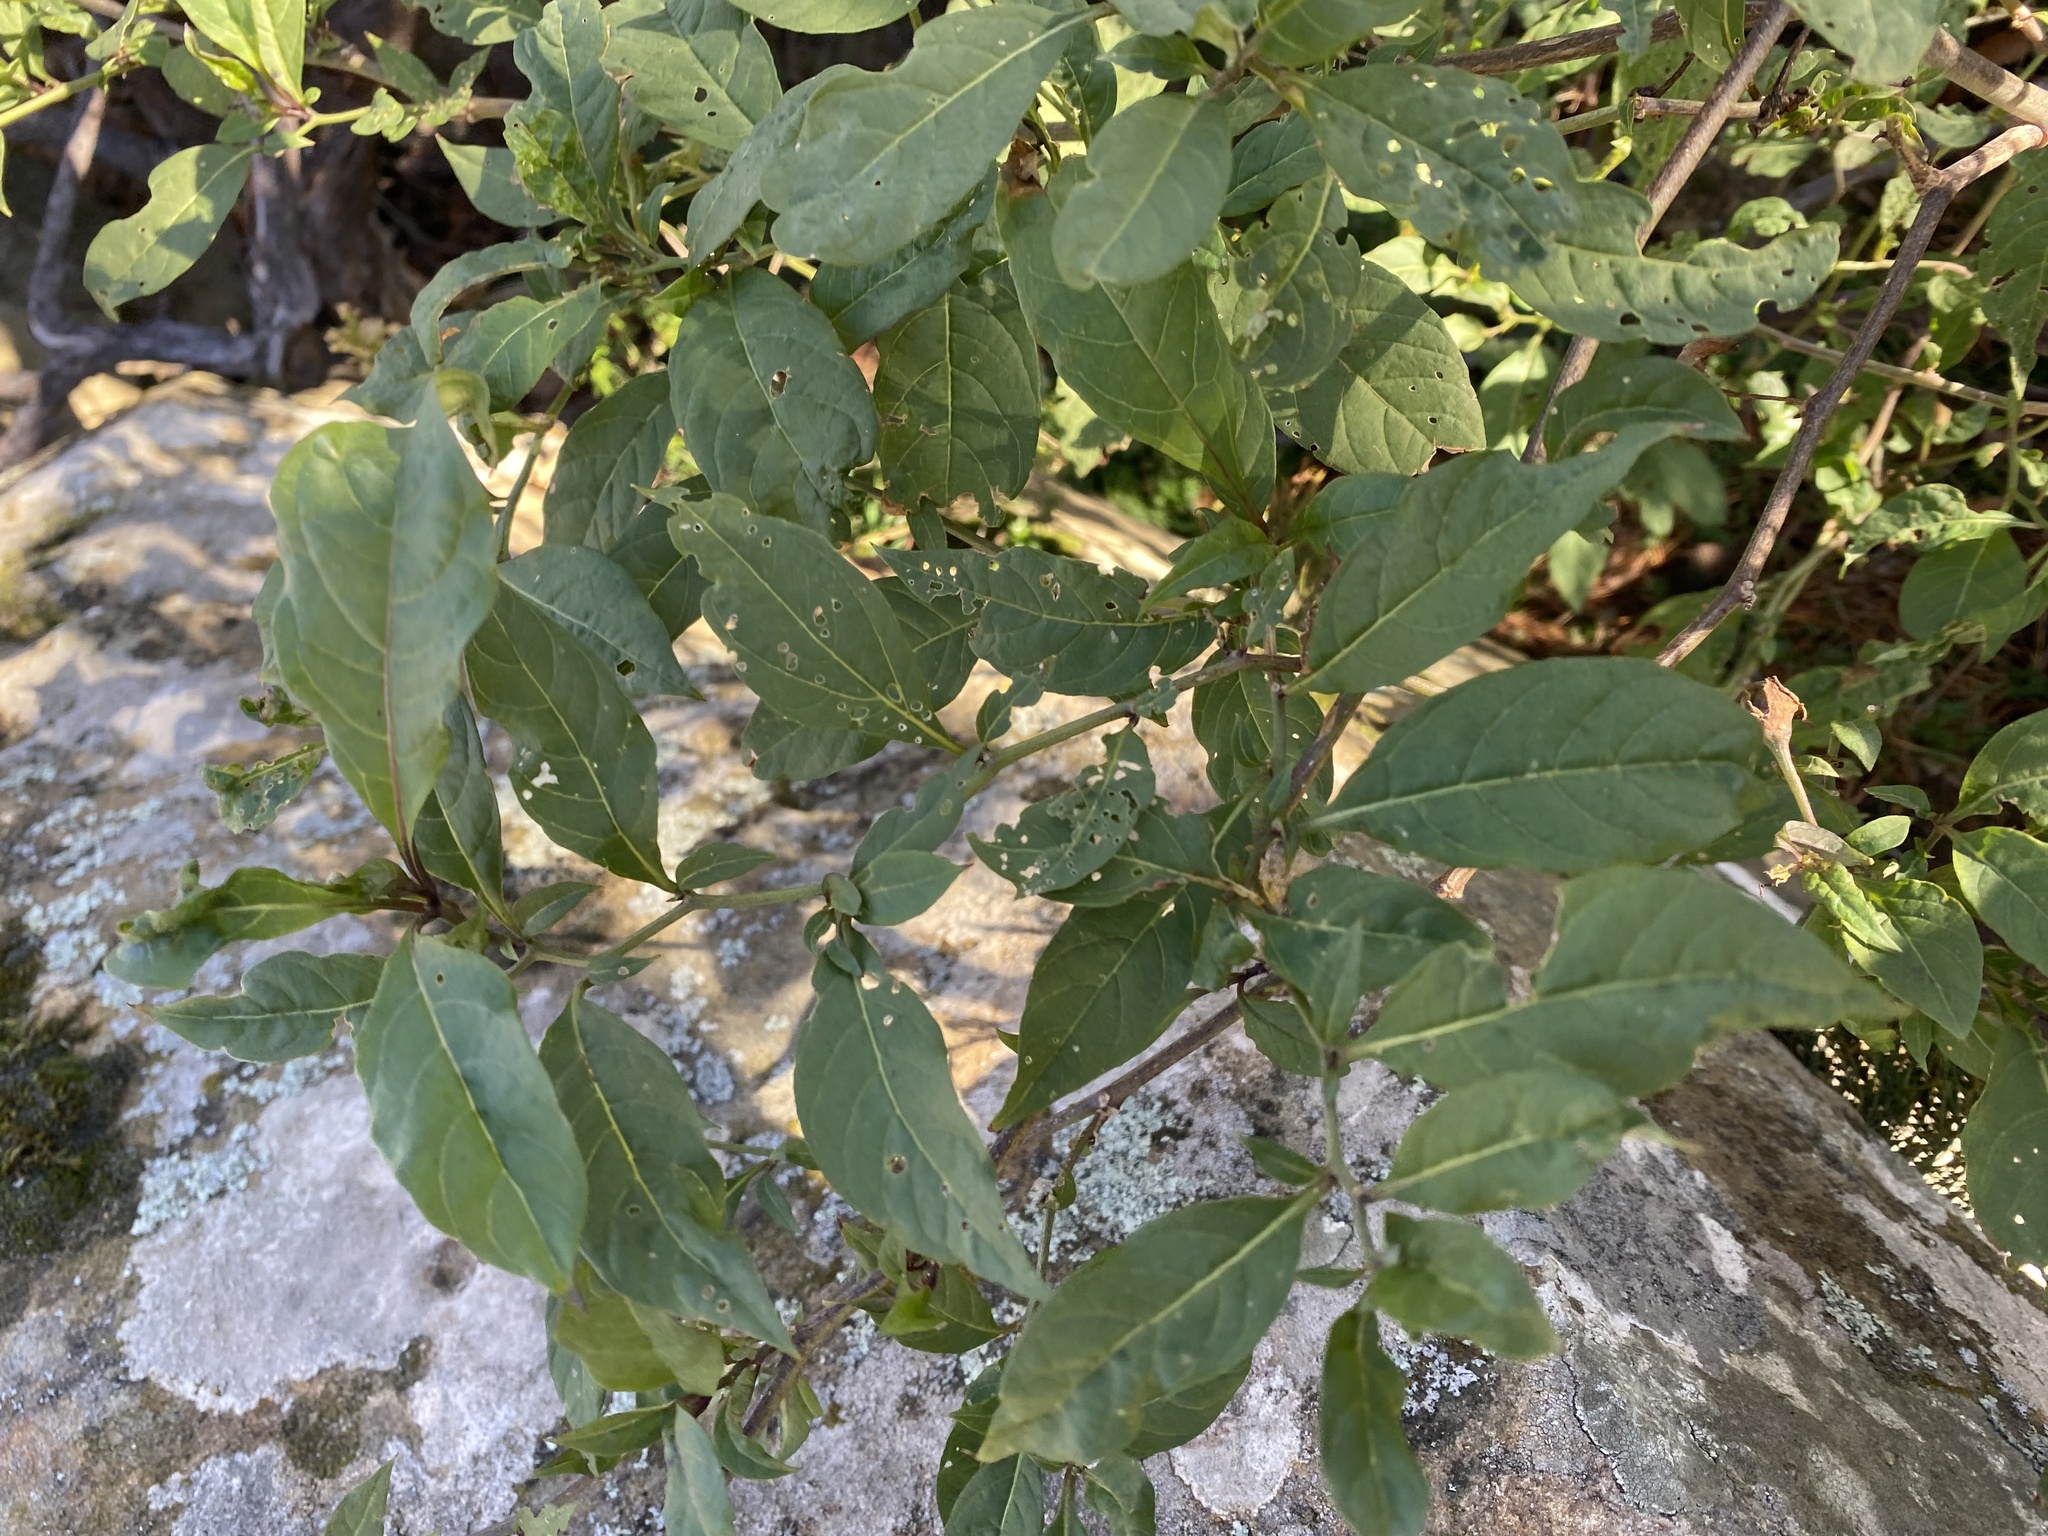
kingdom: Plantae
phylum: Tracheophyta
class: Magnoliopsida
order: Solanales
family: Solanaceae
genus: Atropa
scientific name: Atropa belladonna
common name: Deadly nightshade
